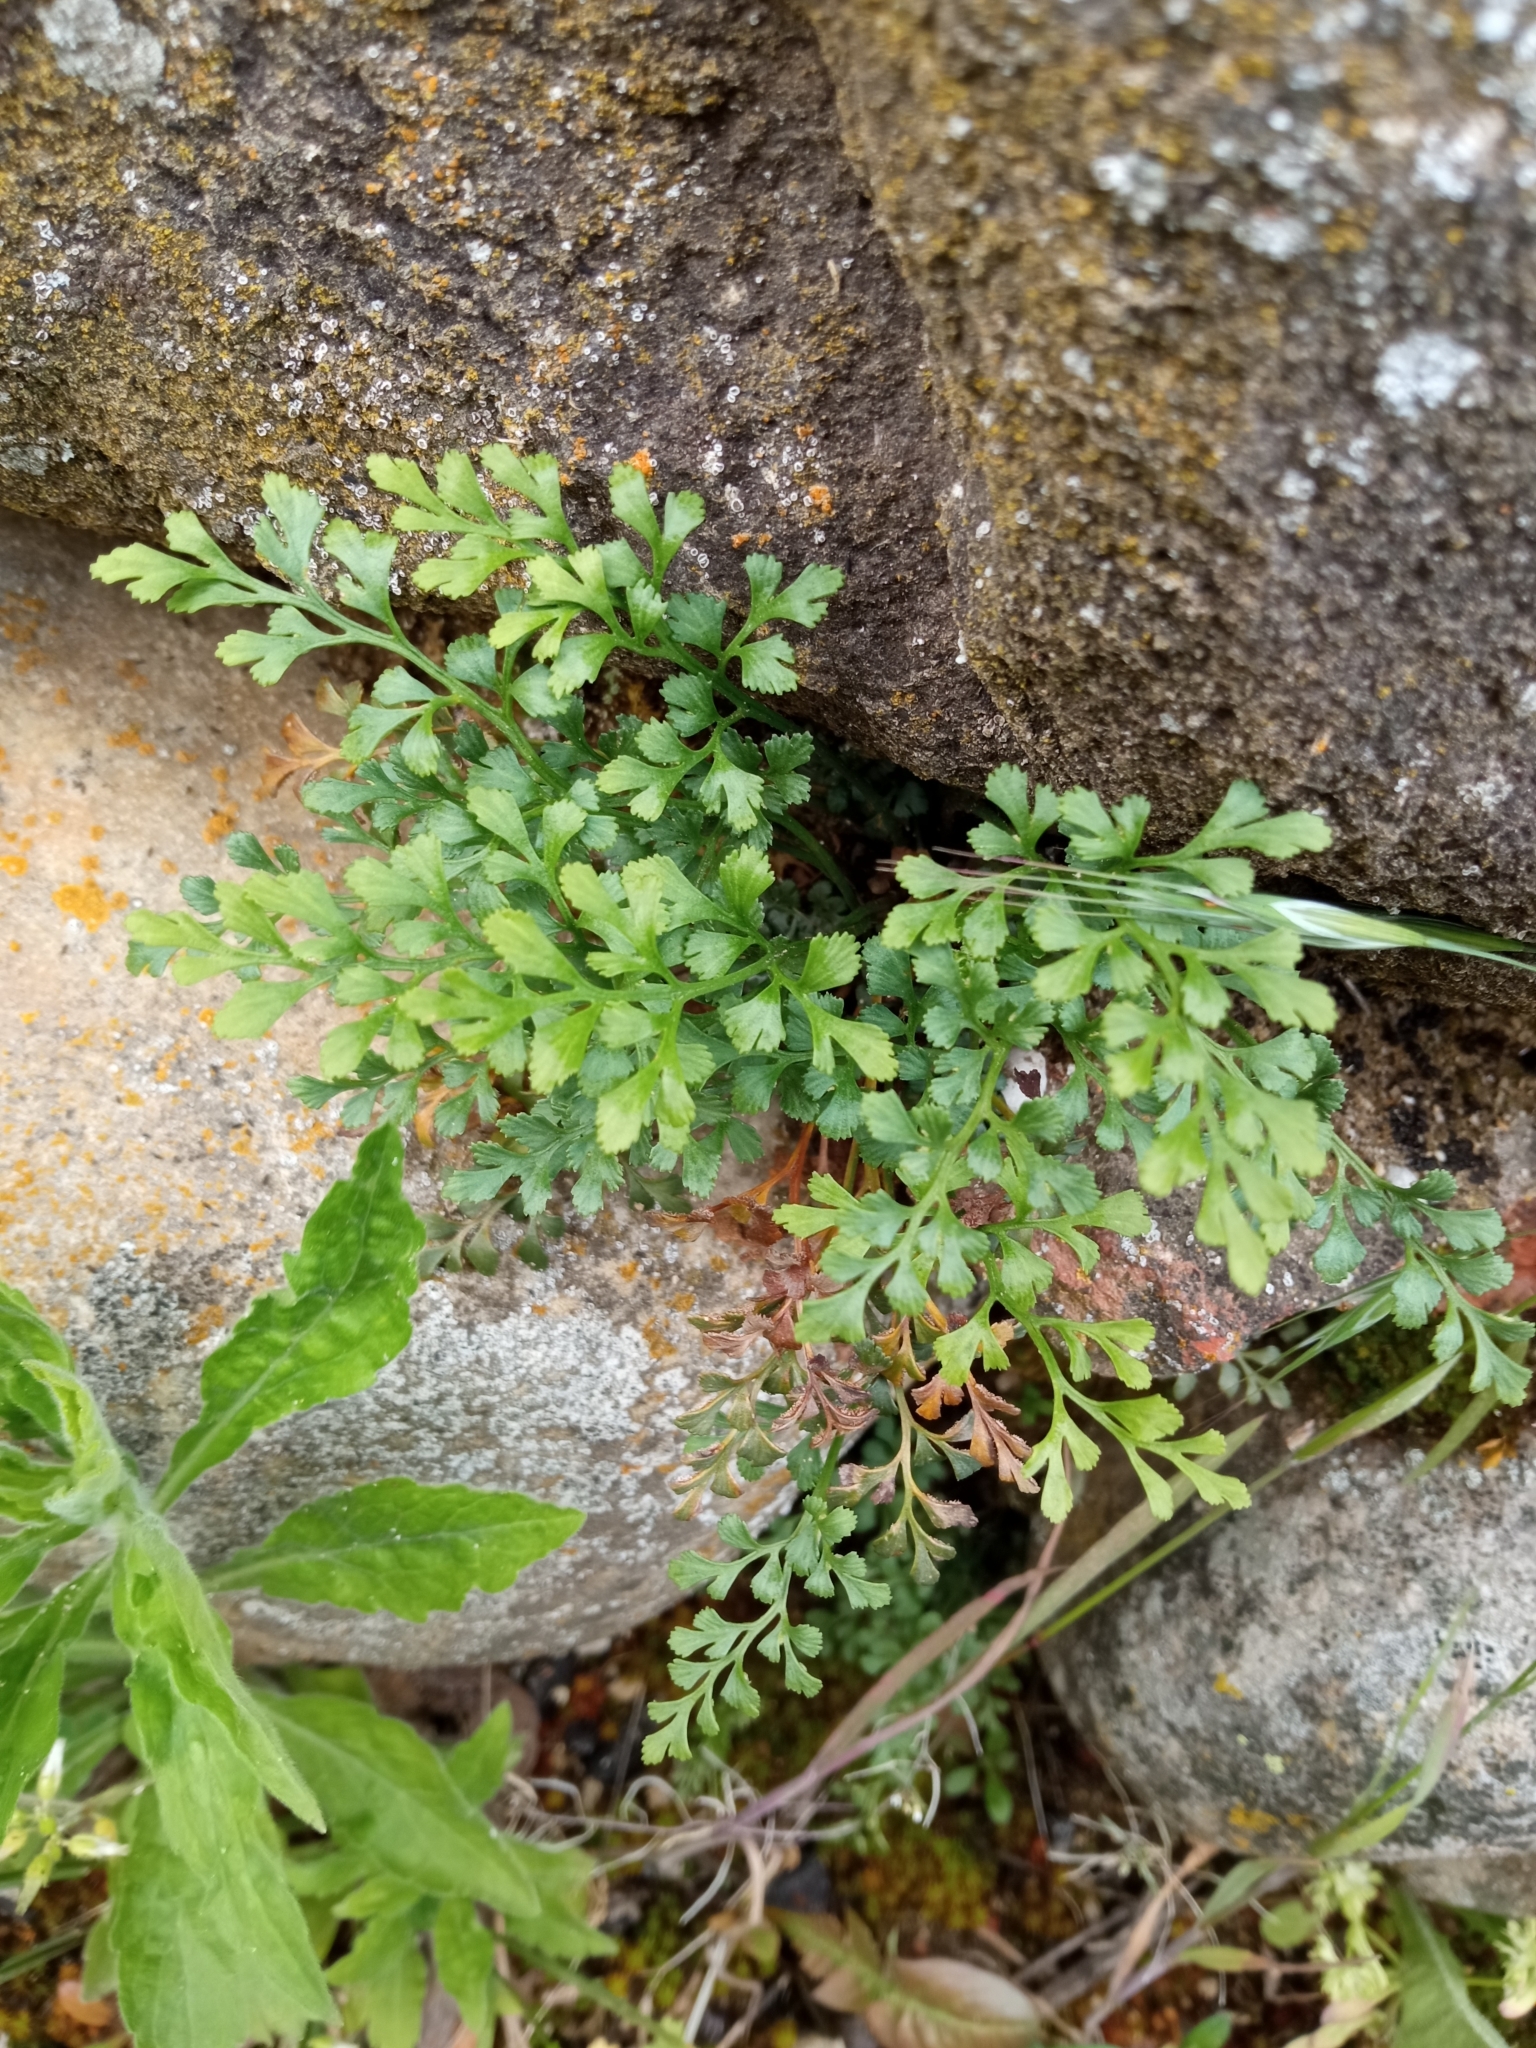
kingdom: Plantae
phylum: Tracheophyta
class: Polypodiopsida
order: Polypodiales
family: Aspleniaceae
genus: Asplenium
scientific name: Asplenium ruta-muraria
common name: Wall-rue
